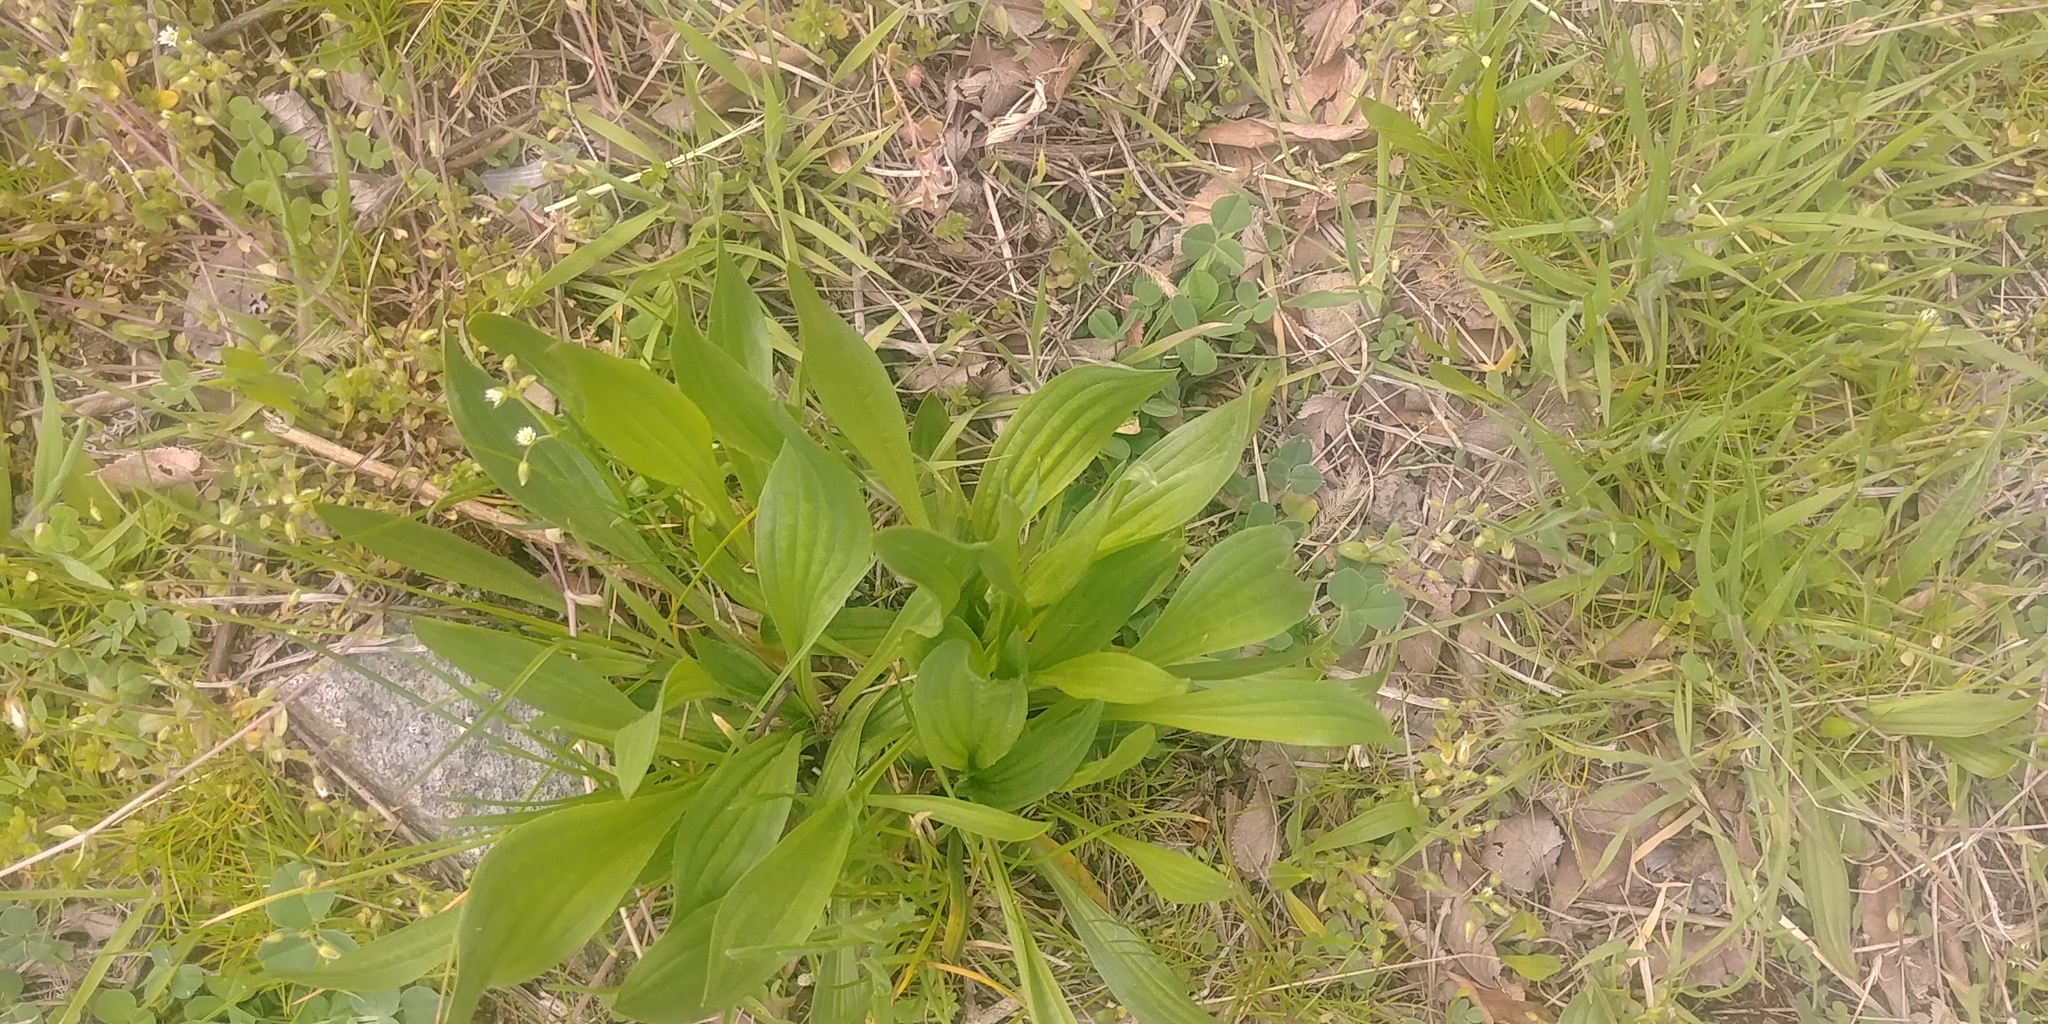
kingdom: Plantae
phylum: Tracheophyta
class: Magnoliopsida
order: Lamiales
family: Plantaginaceae
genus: Plantago
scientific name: Plantago lanceolata
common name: Ribwort plantain
